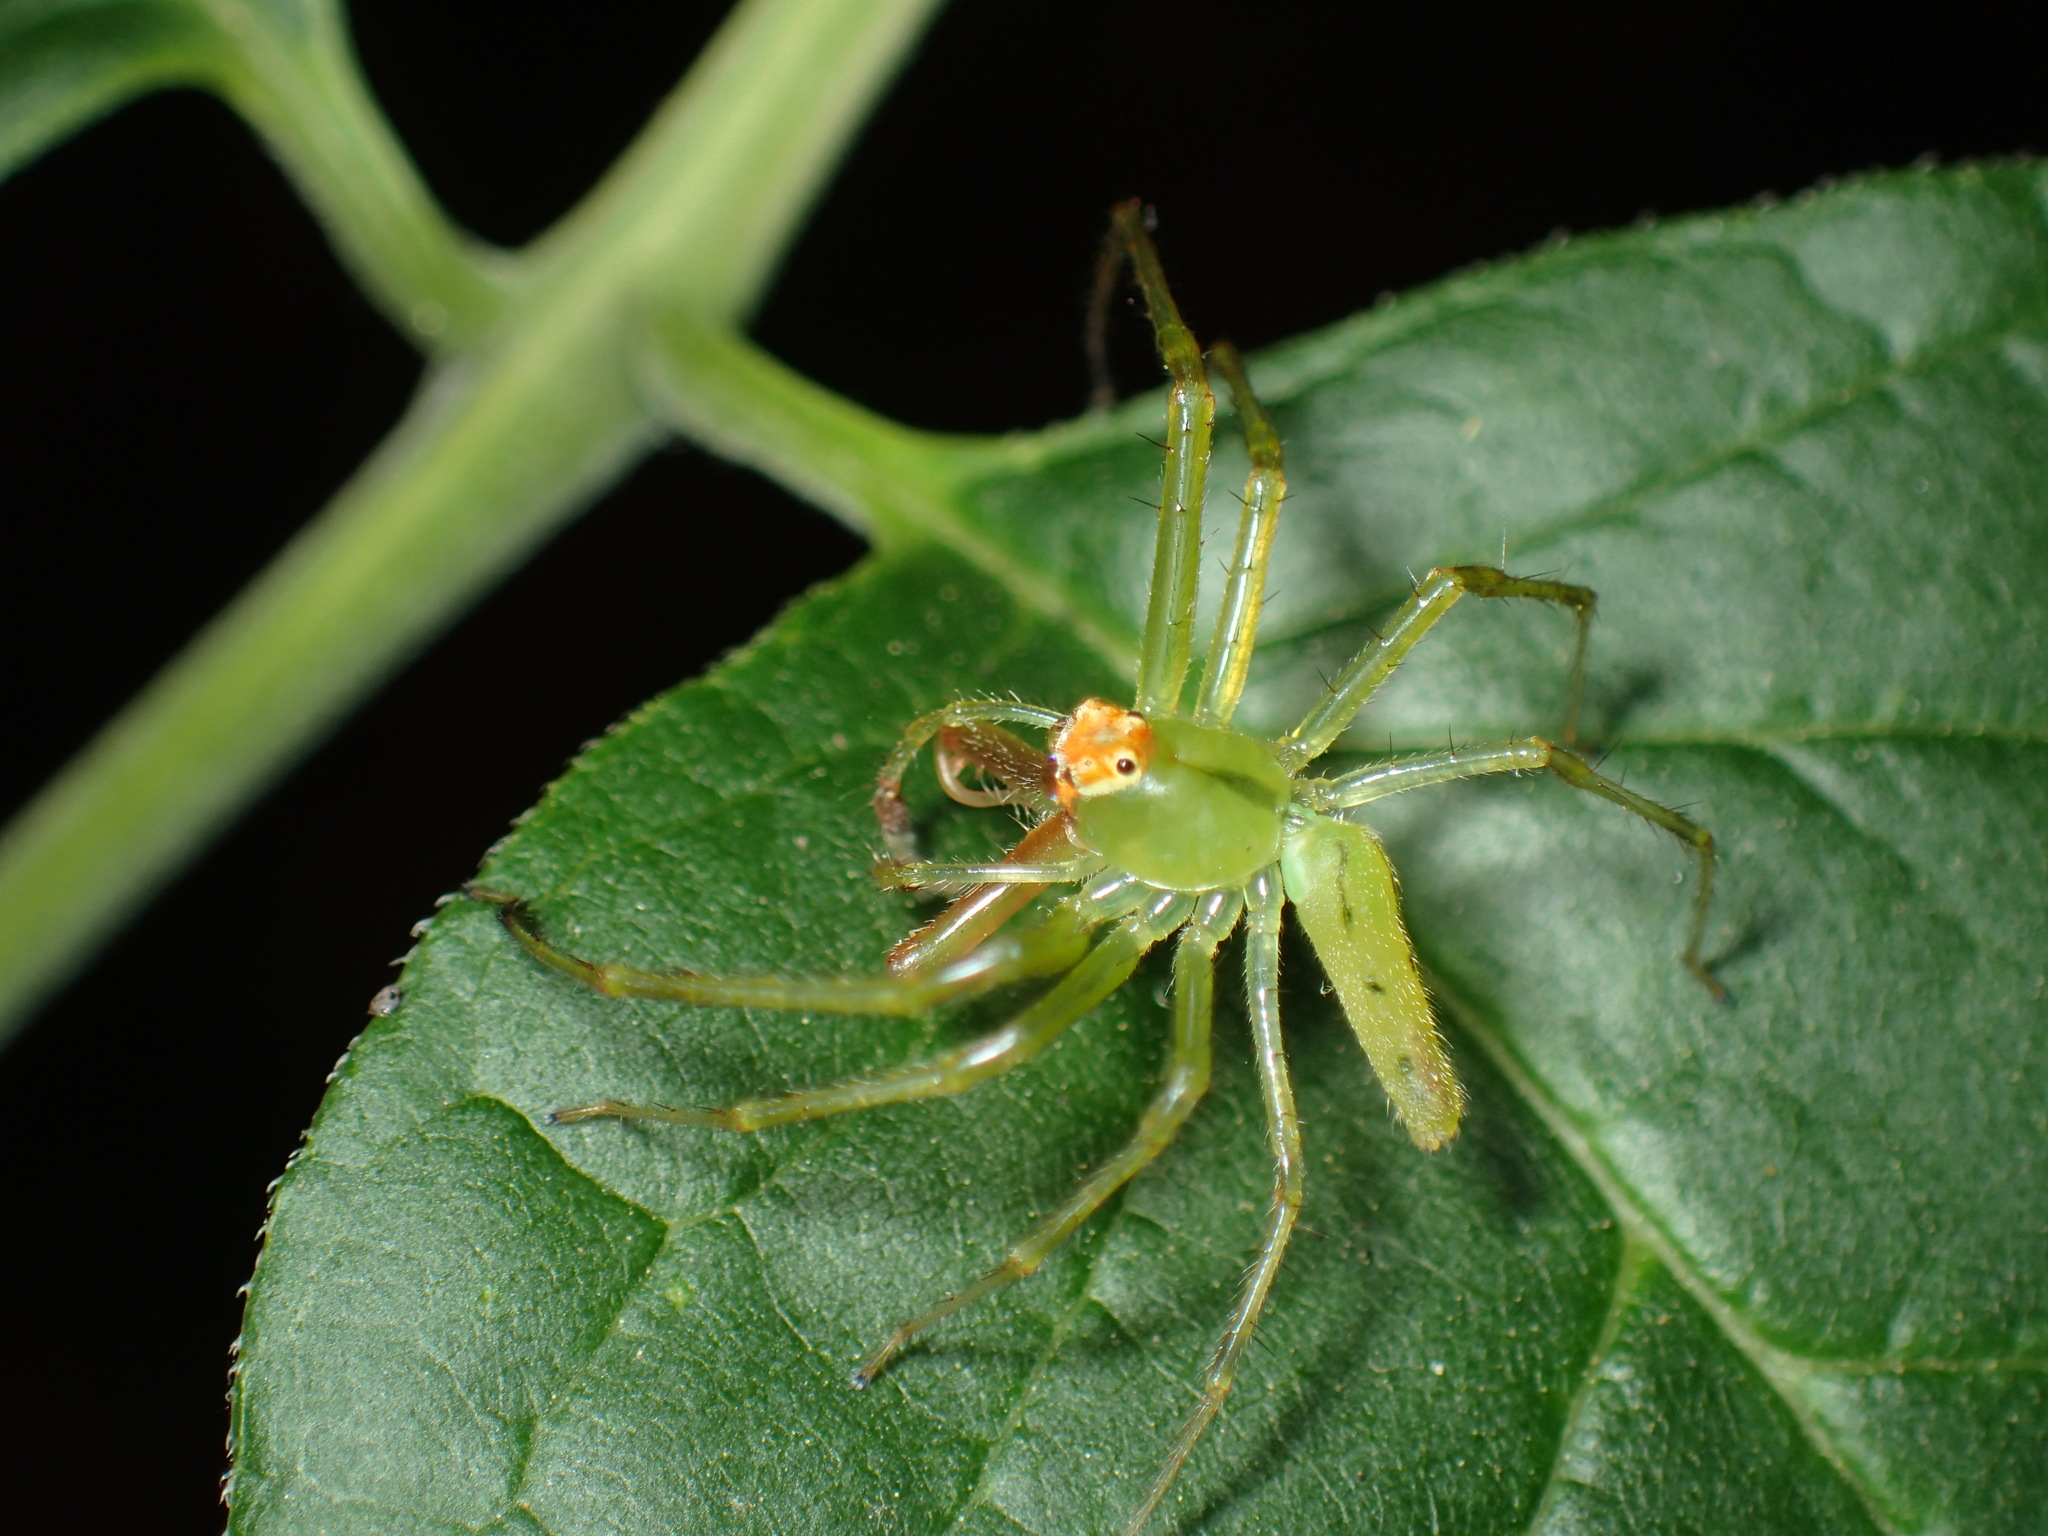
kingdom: Animalia
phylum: Arthropoda
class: Arachnida
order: Araneae
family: Salticidae
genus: Lyssomanes
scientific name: Lyssomanes viridis
